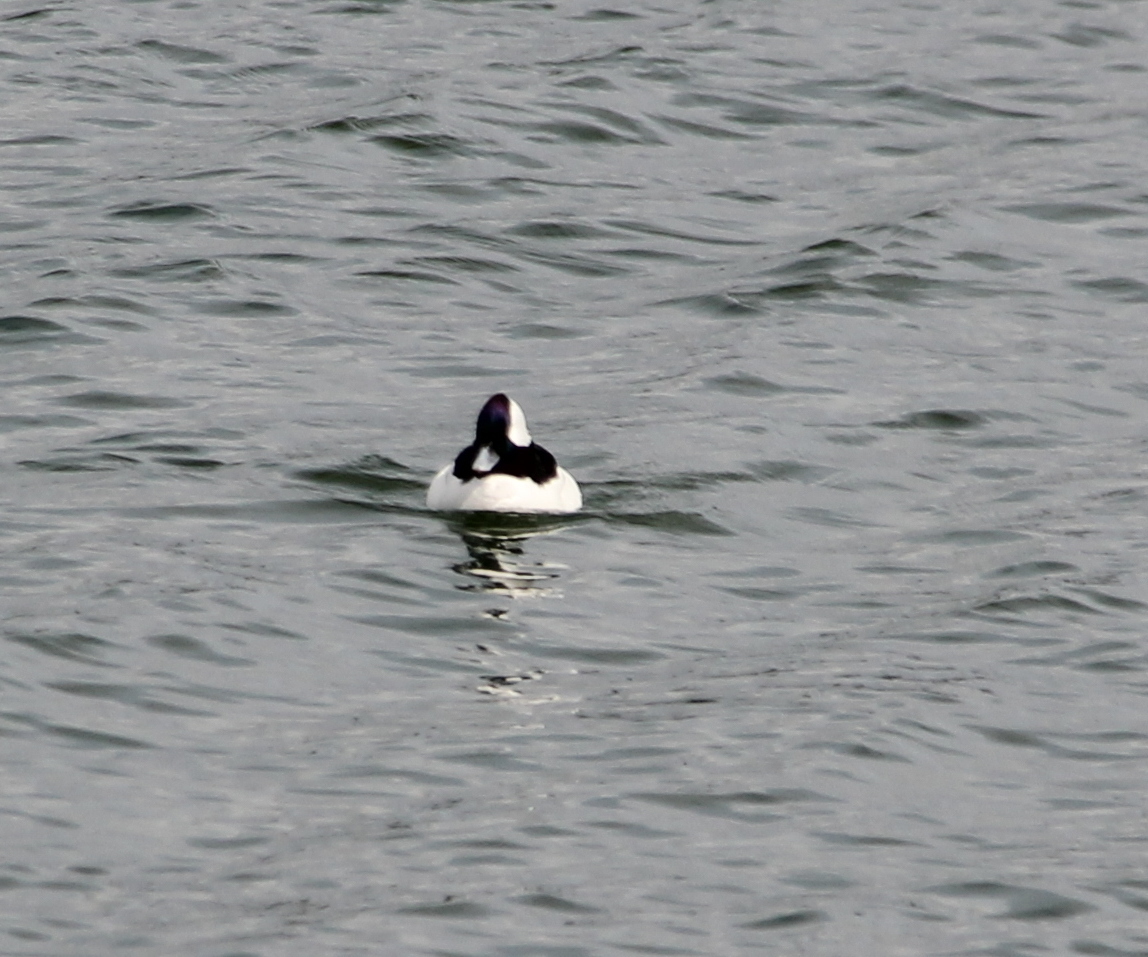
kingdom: Animalia
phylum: Chordata
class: Aves
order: Anseriformes
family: Anatidae
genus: Bucephala
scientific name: Bucephala albeola
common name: Bufflehead
